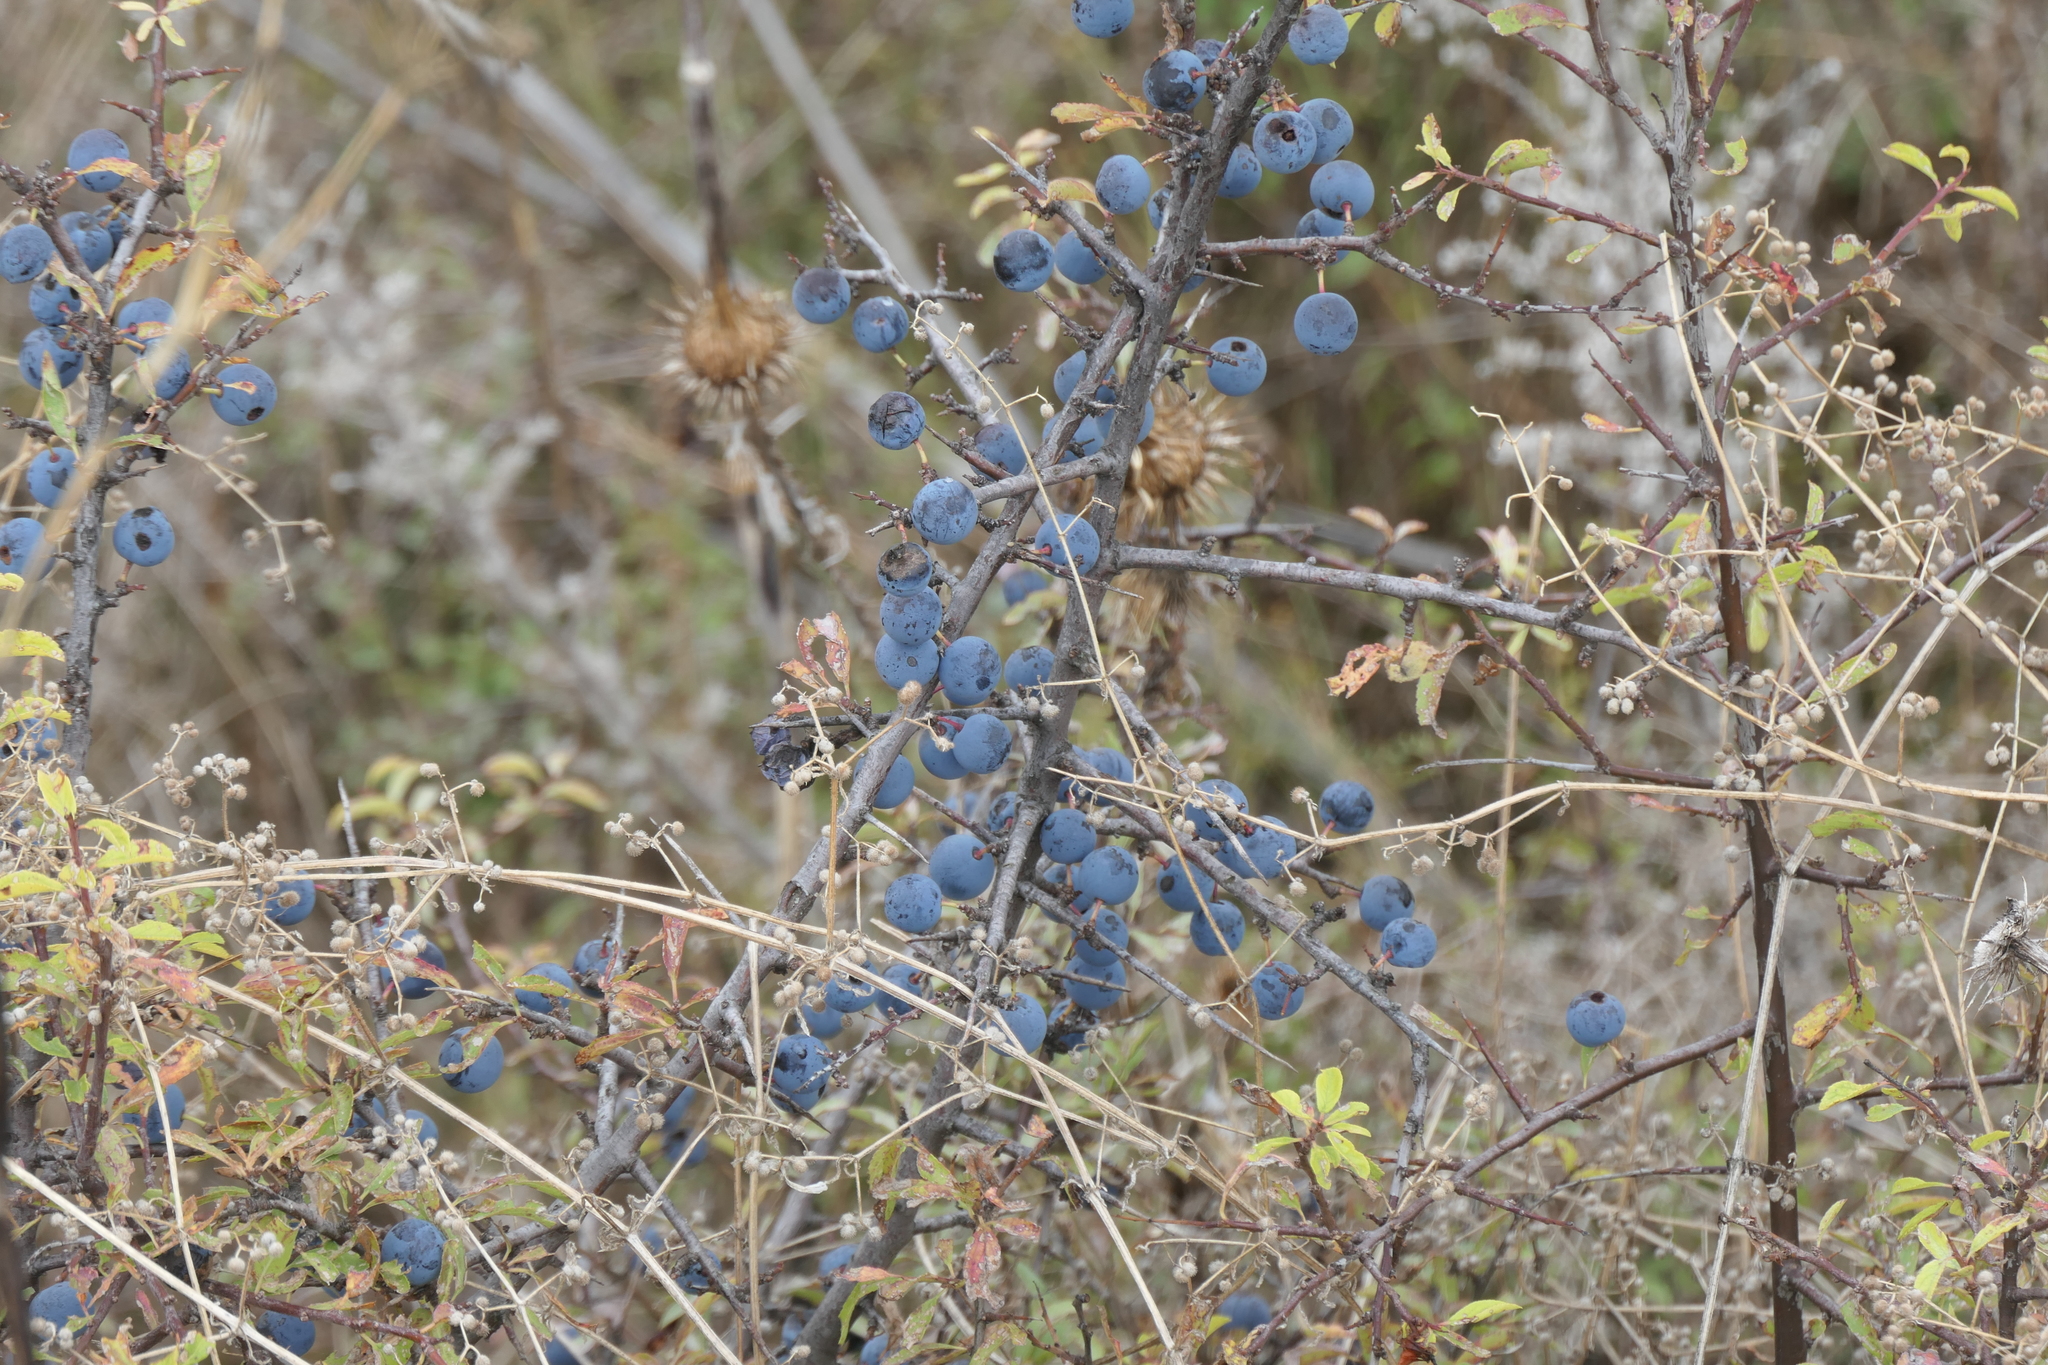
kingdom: Plantae
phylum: Tracheophyta
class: Magnoliopsida
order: Rosales
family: Rosaceae
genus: Prunus
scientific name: Prunus spinosa
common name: Blackthorn
